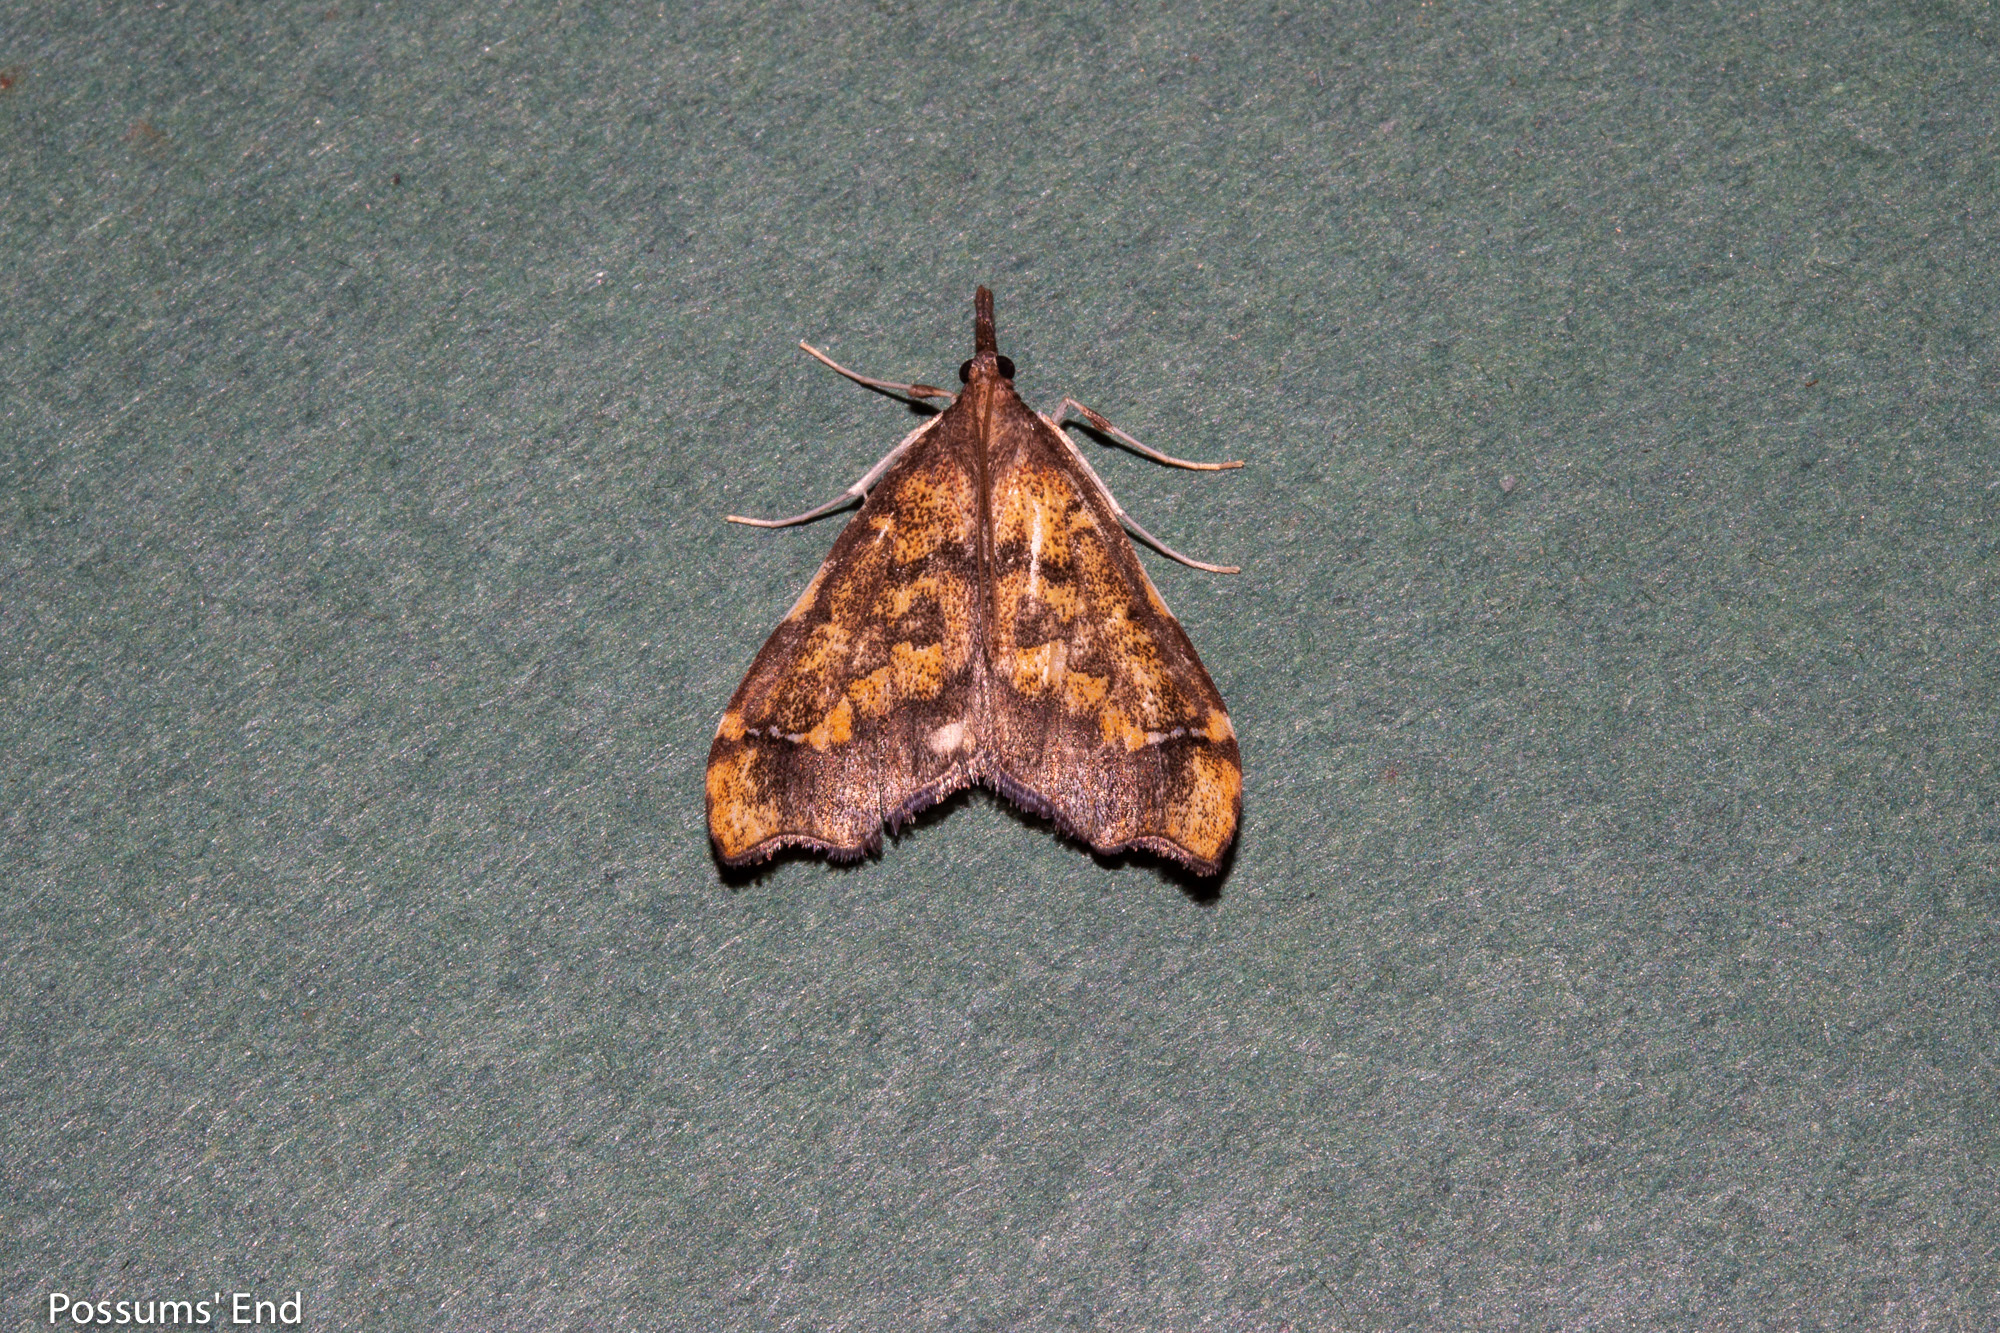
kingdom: Animalia
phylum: Arthropoda
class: Insecta
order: Lepidoptera
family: Crambidae
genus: Deana
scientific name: Deana hybreasalis
